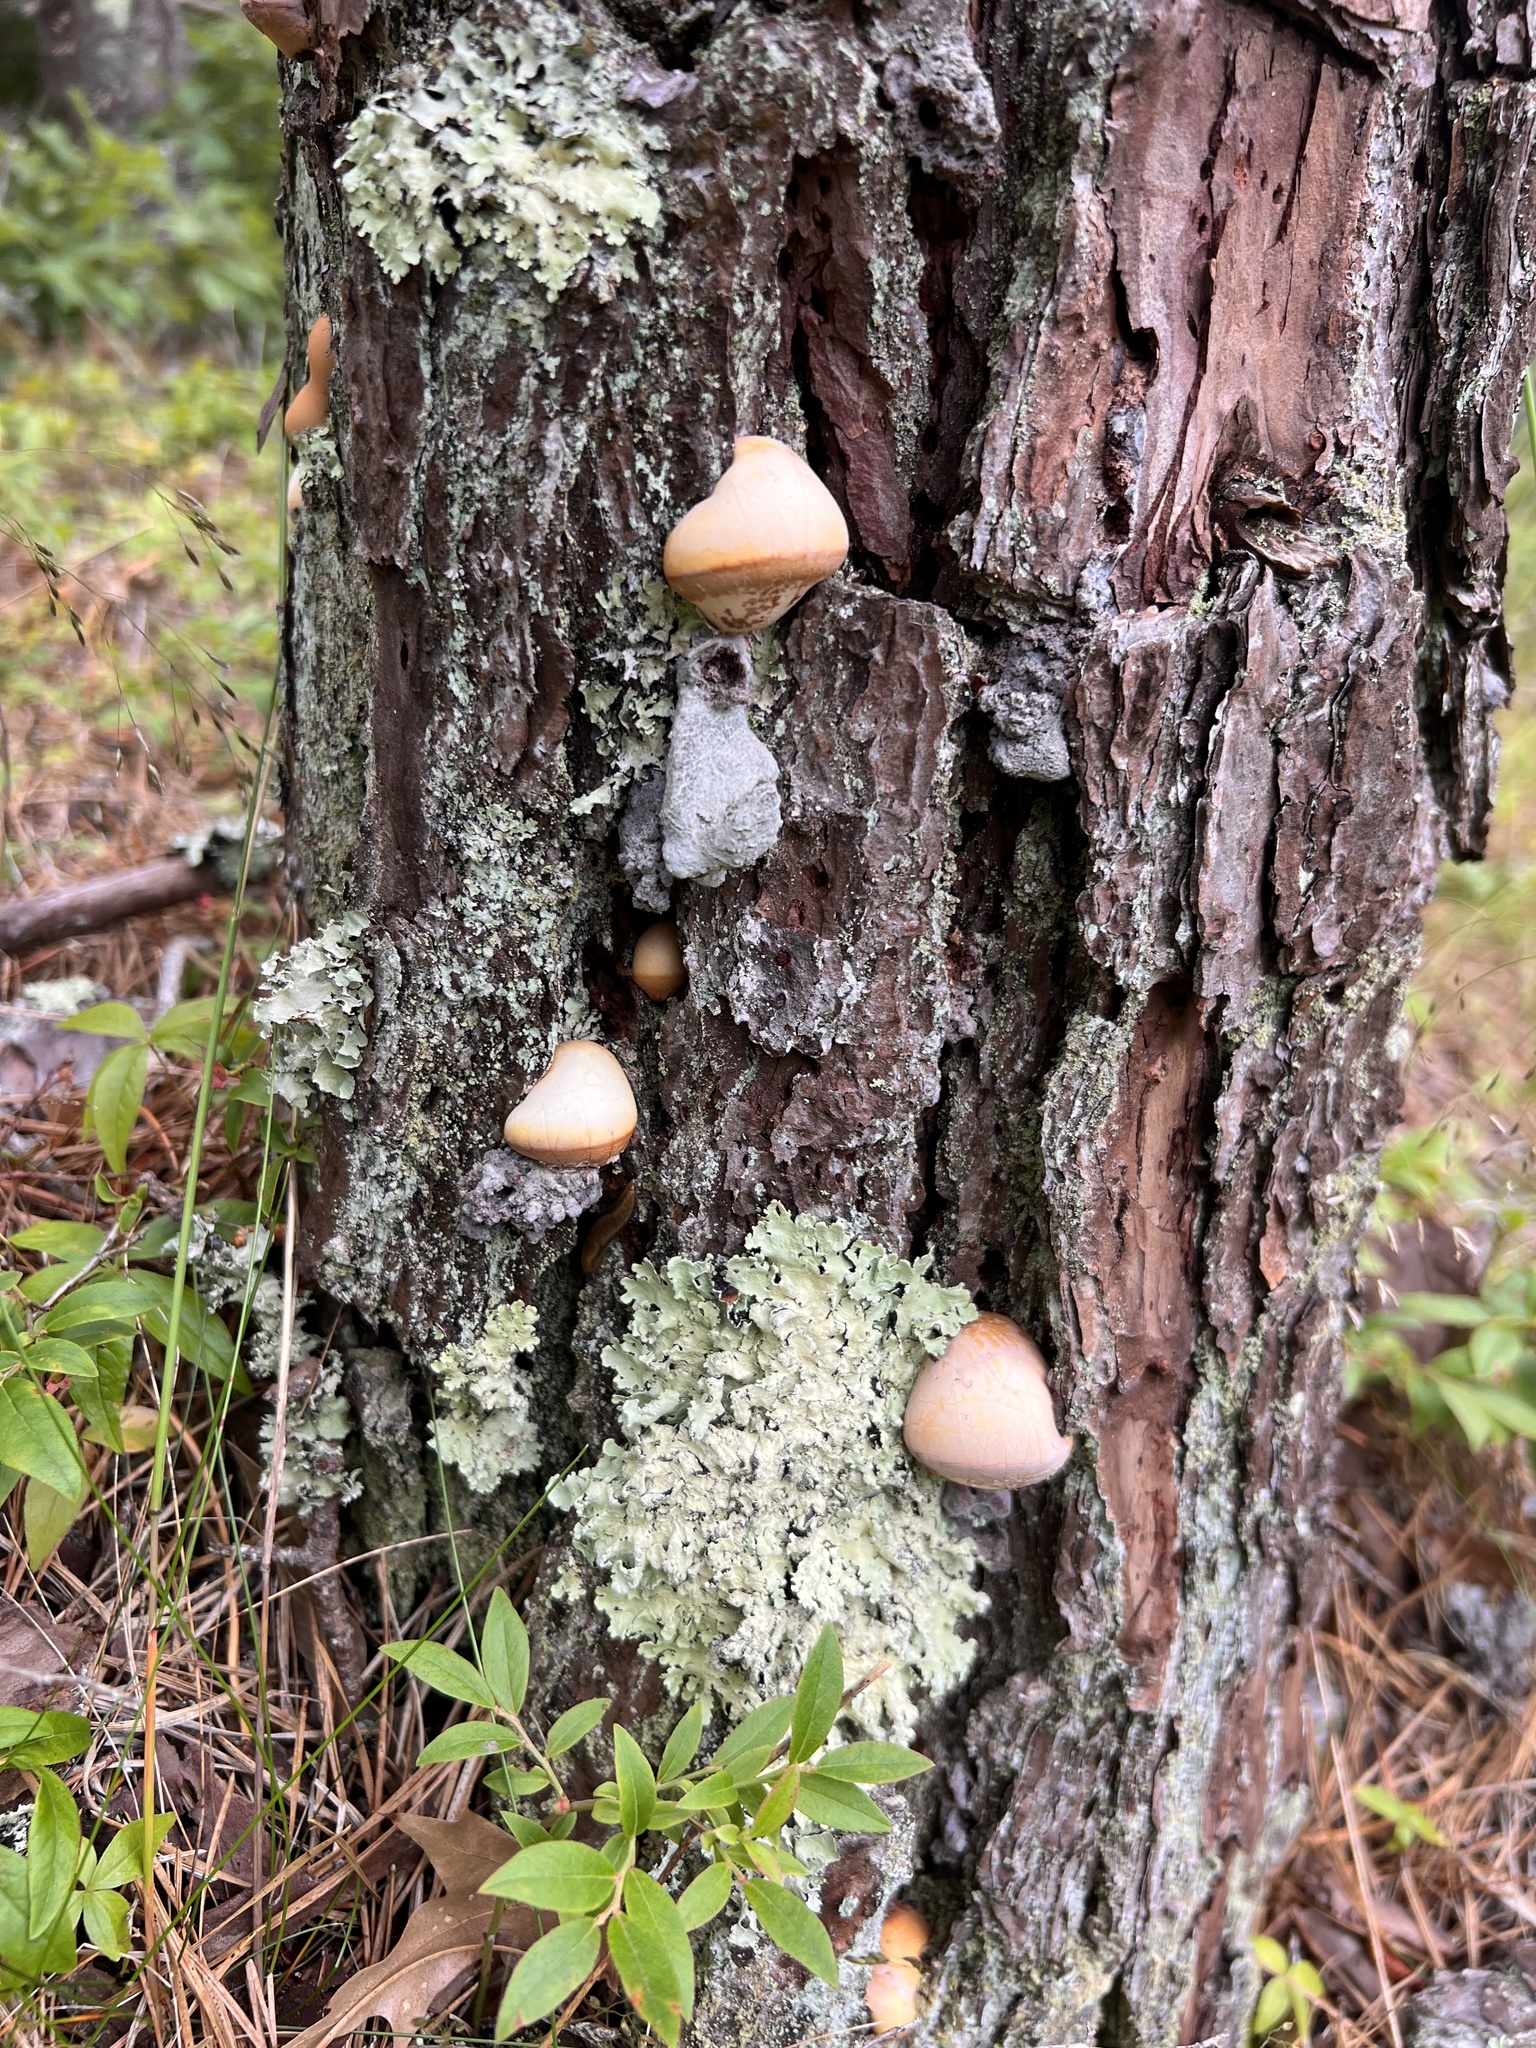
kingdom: Fungi
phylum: Basidiomycota
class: Agaricomycetes
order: Polyporales
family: Polyporaceae
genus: Cryptoporus
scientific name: Cryptoporus volvatus
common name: Veiled polypore
